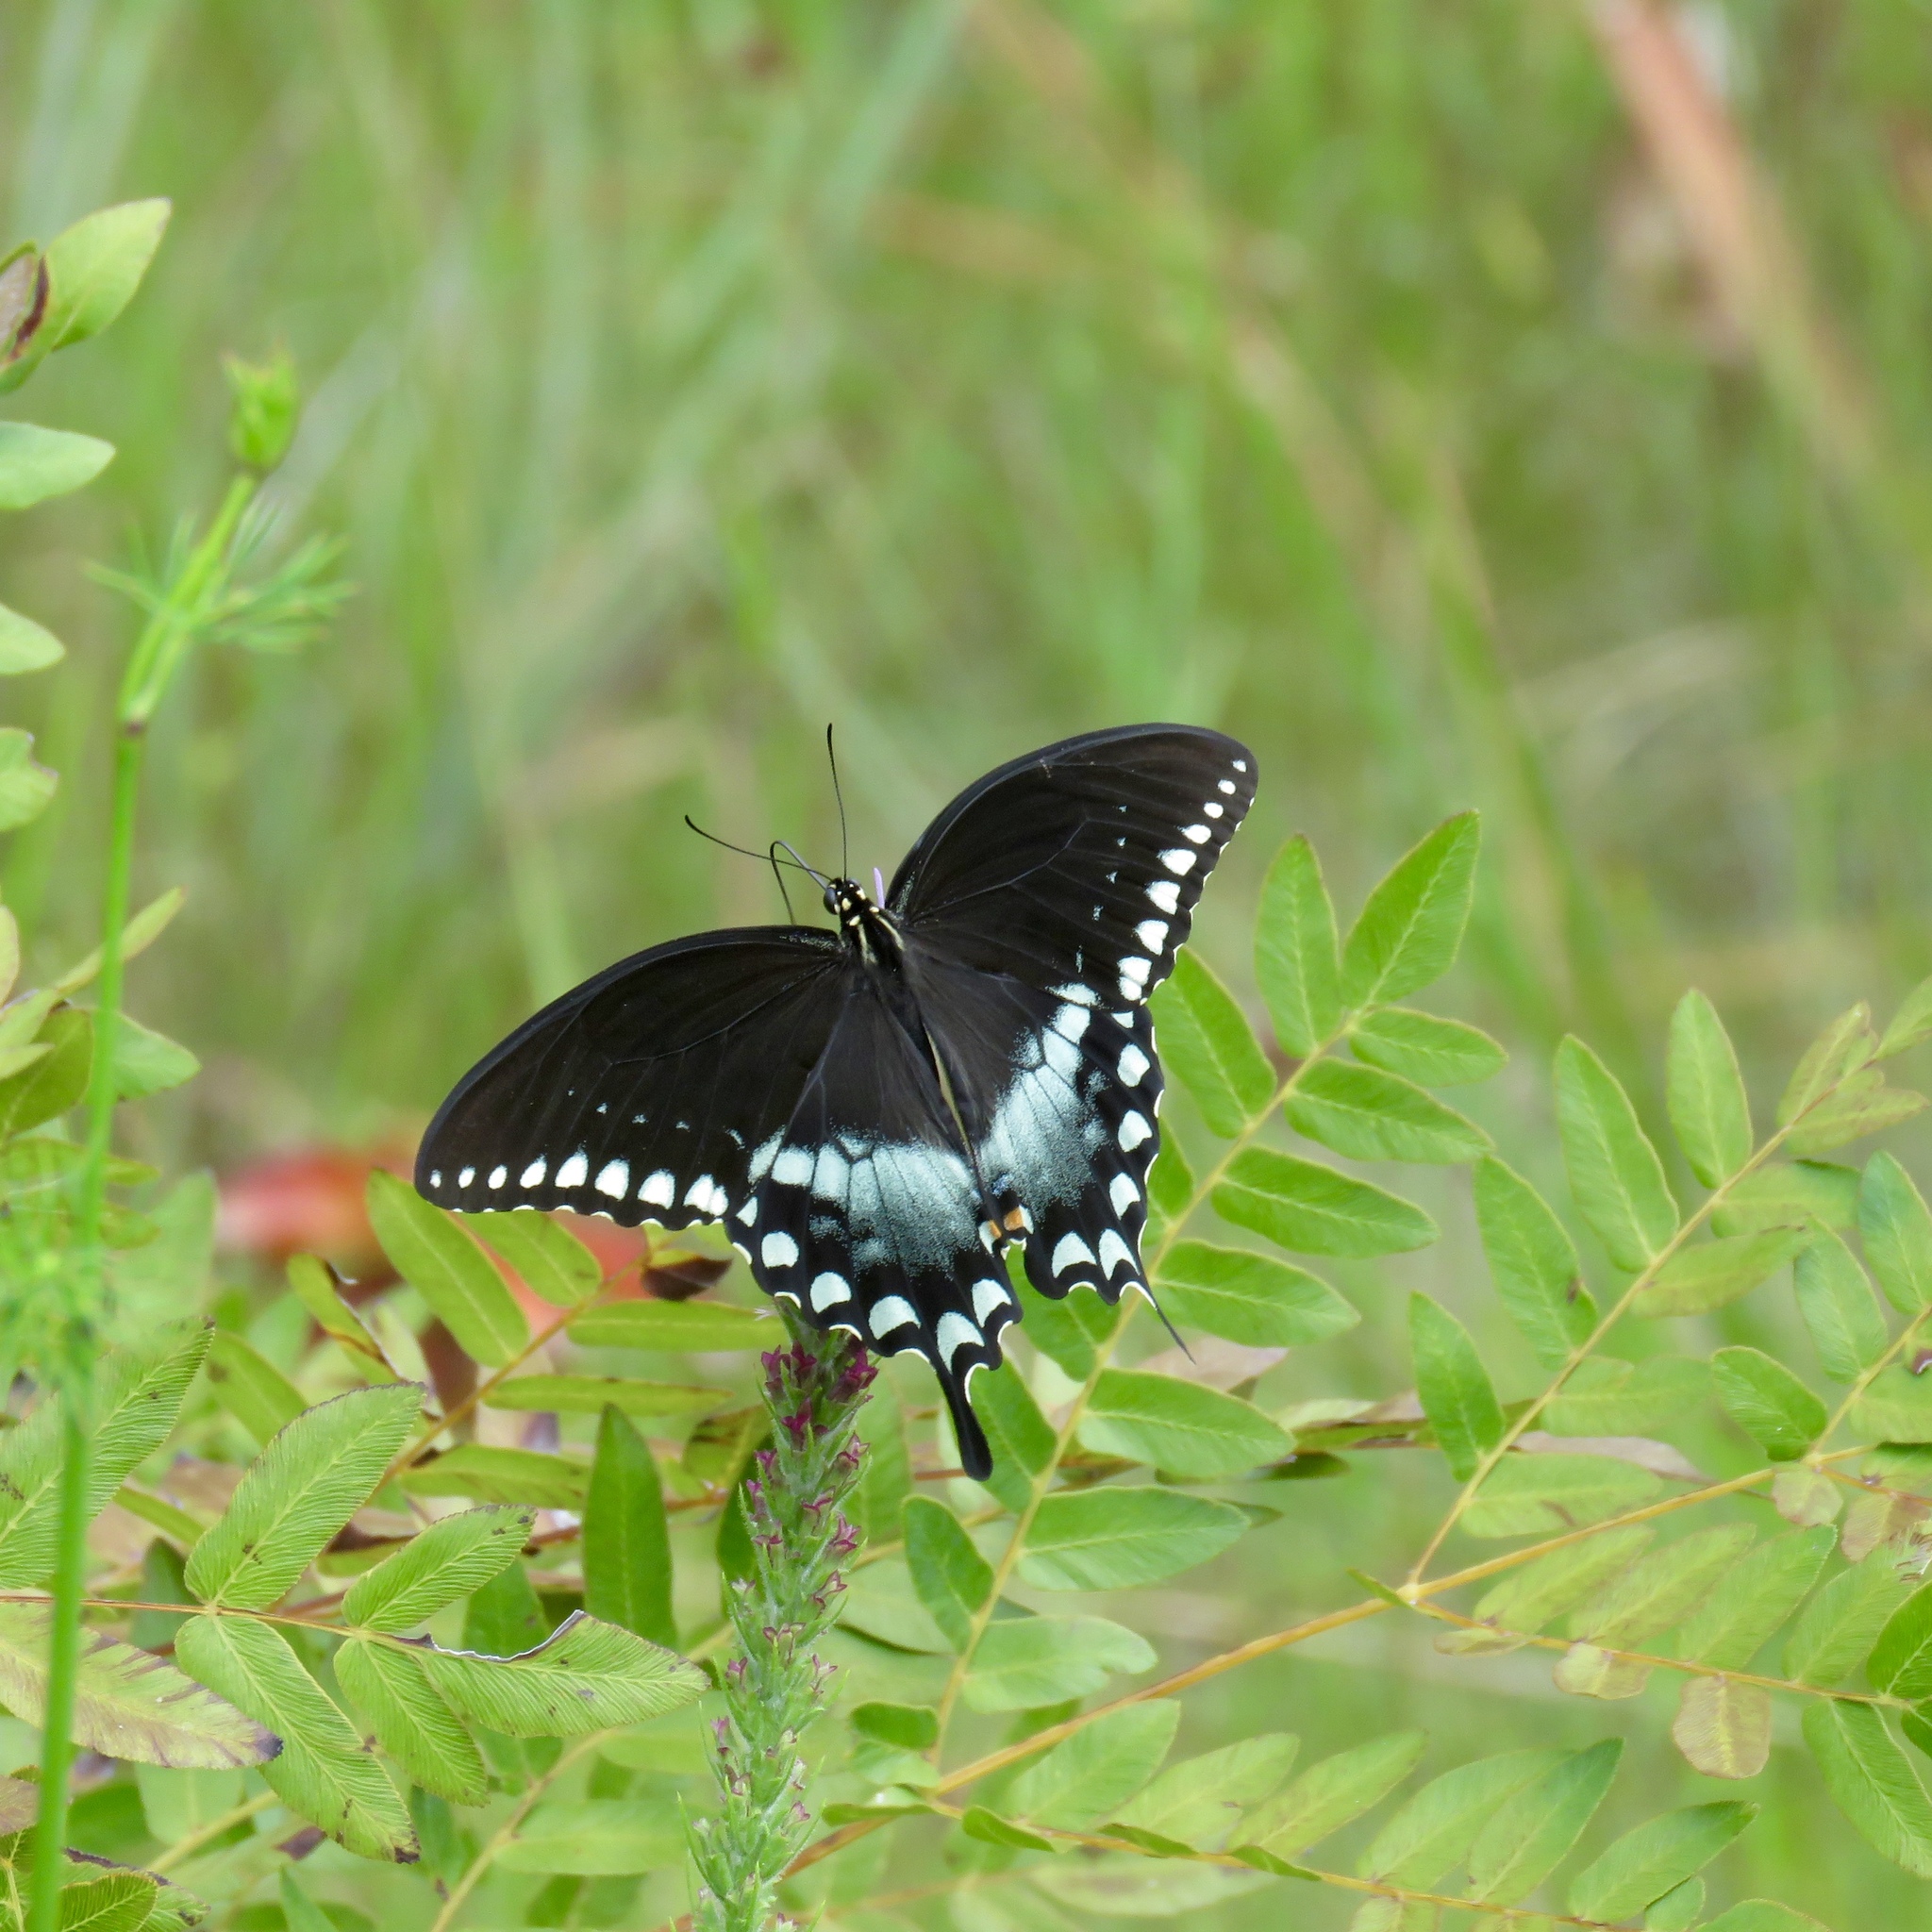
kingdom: Animalia
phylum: Arthropoda
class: Insecta
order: Lepidoptera
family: Papilionidae
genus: Papilio
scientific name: Papilio troilus
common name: Spicebush swallowtail
